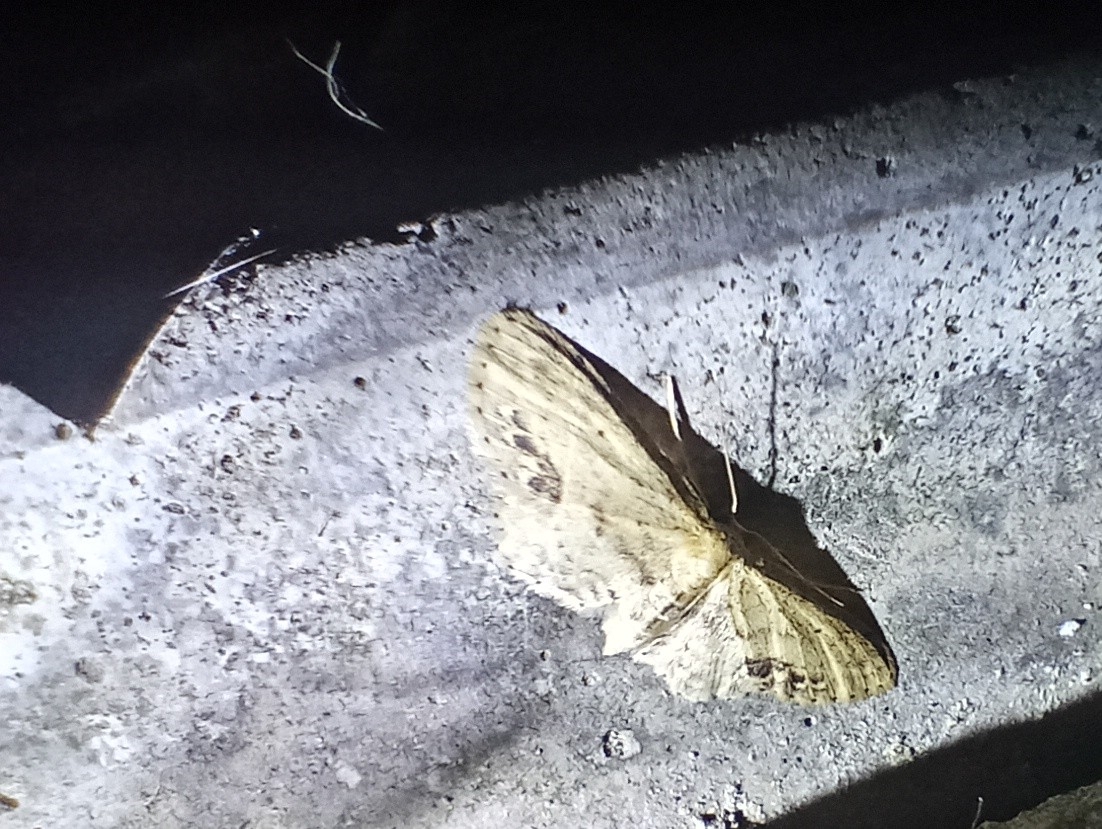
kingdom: Animalia
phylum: Arthropoda
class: Insecta
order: Lepidoptera
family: Geometridae
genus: Idaea
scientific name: Idaea dimidiata
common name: Single-dotted wave
